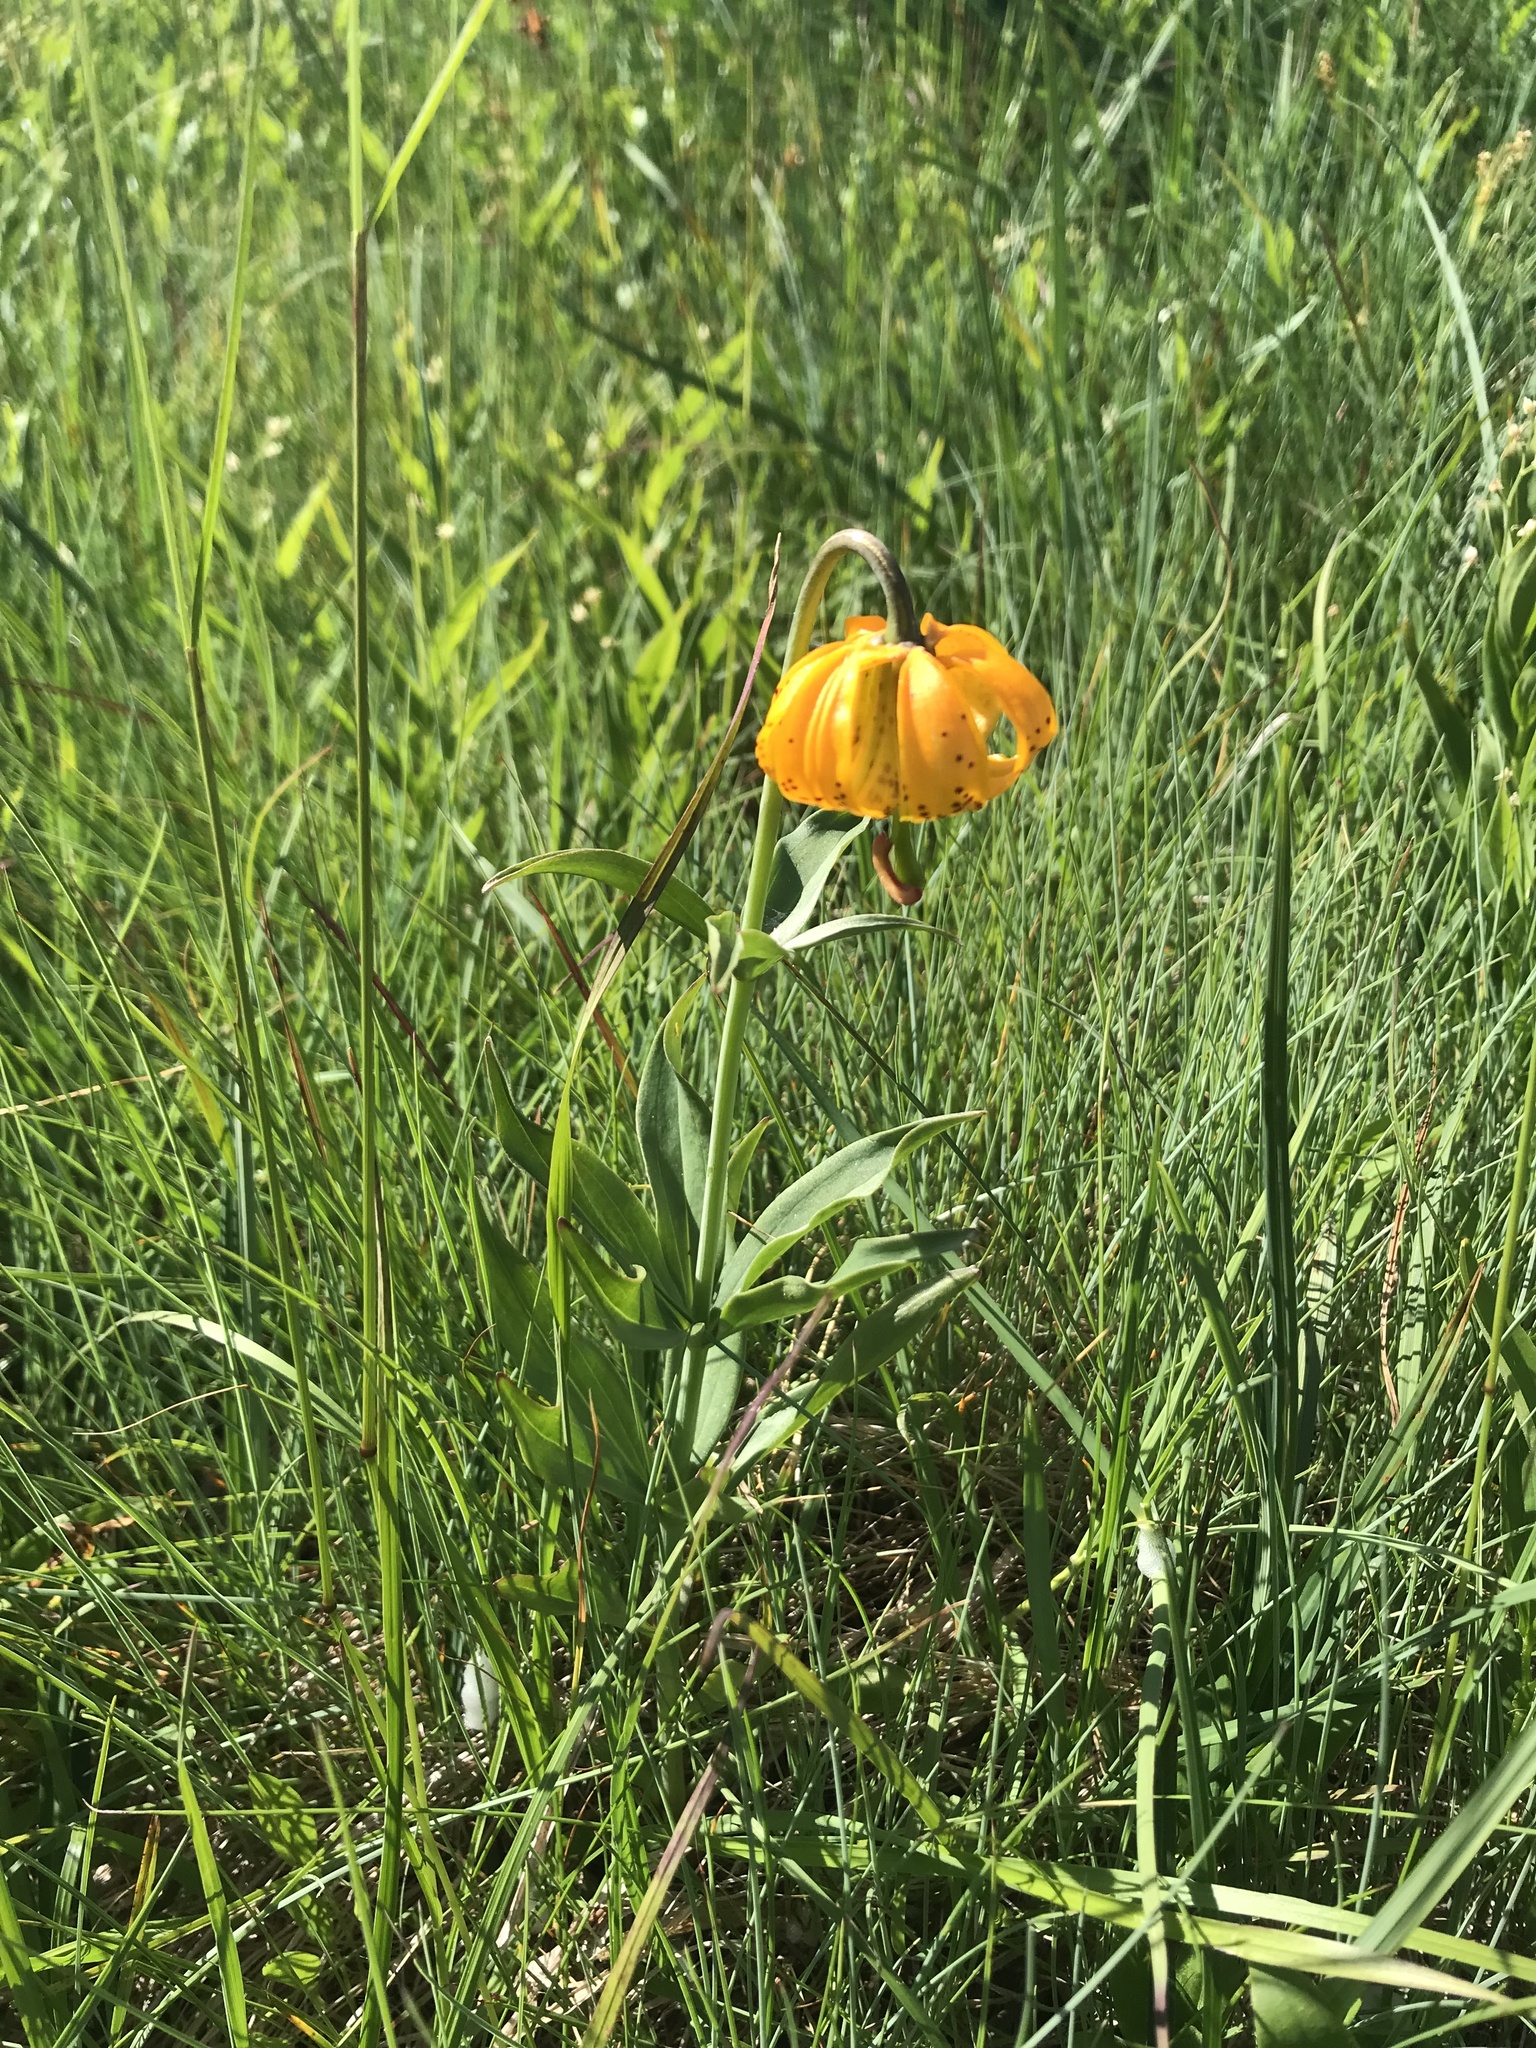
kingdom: Plantae
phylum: Tracheophyta
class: Liliopsida
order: Liliales
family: Liliaceae
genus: Lilium
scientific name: Lilium columbianum
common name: Columbia lily
